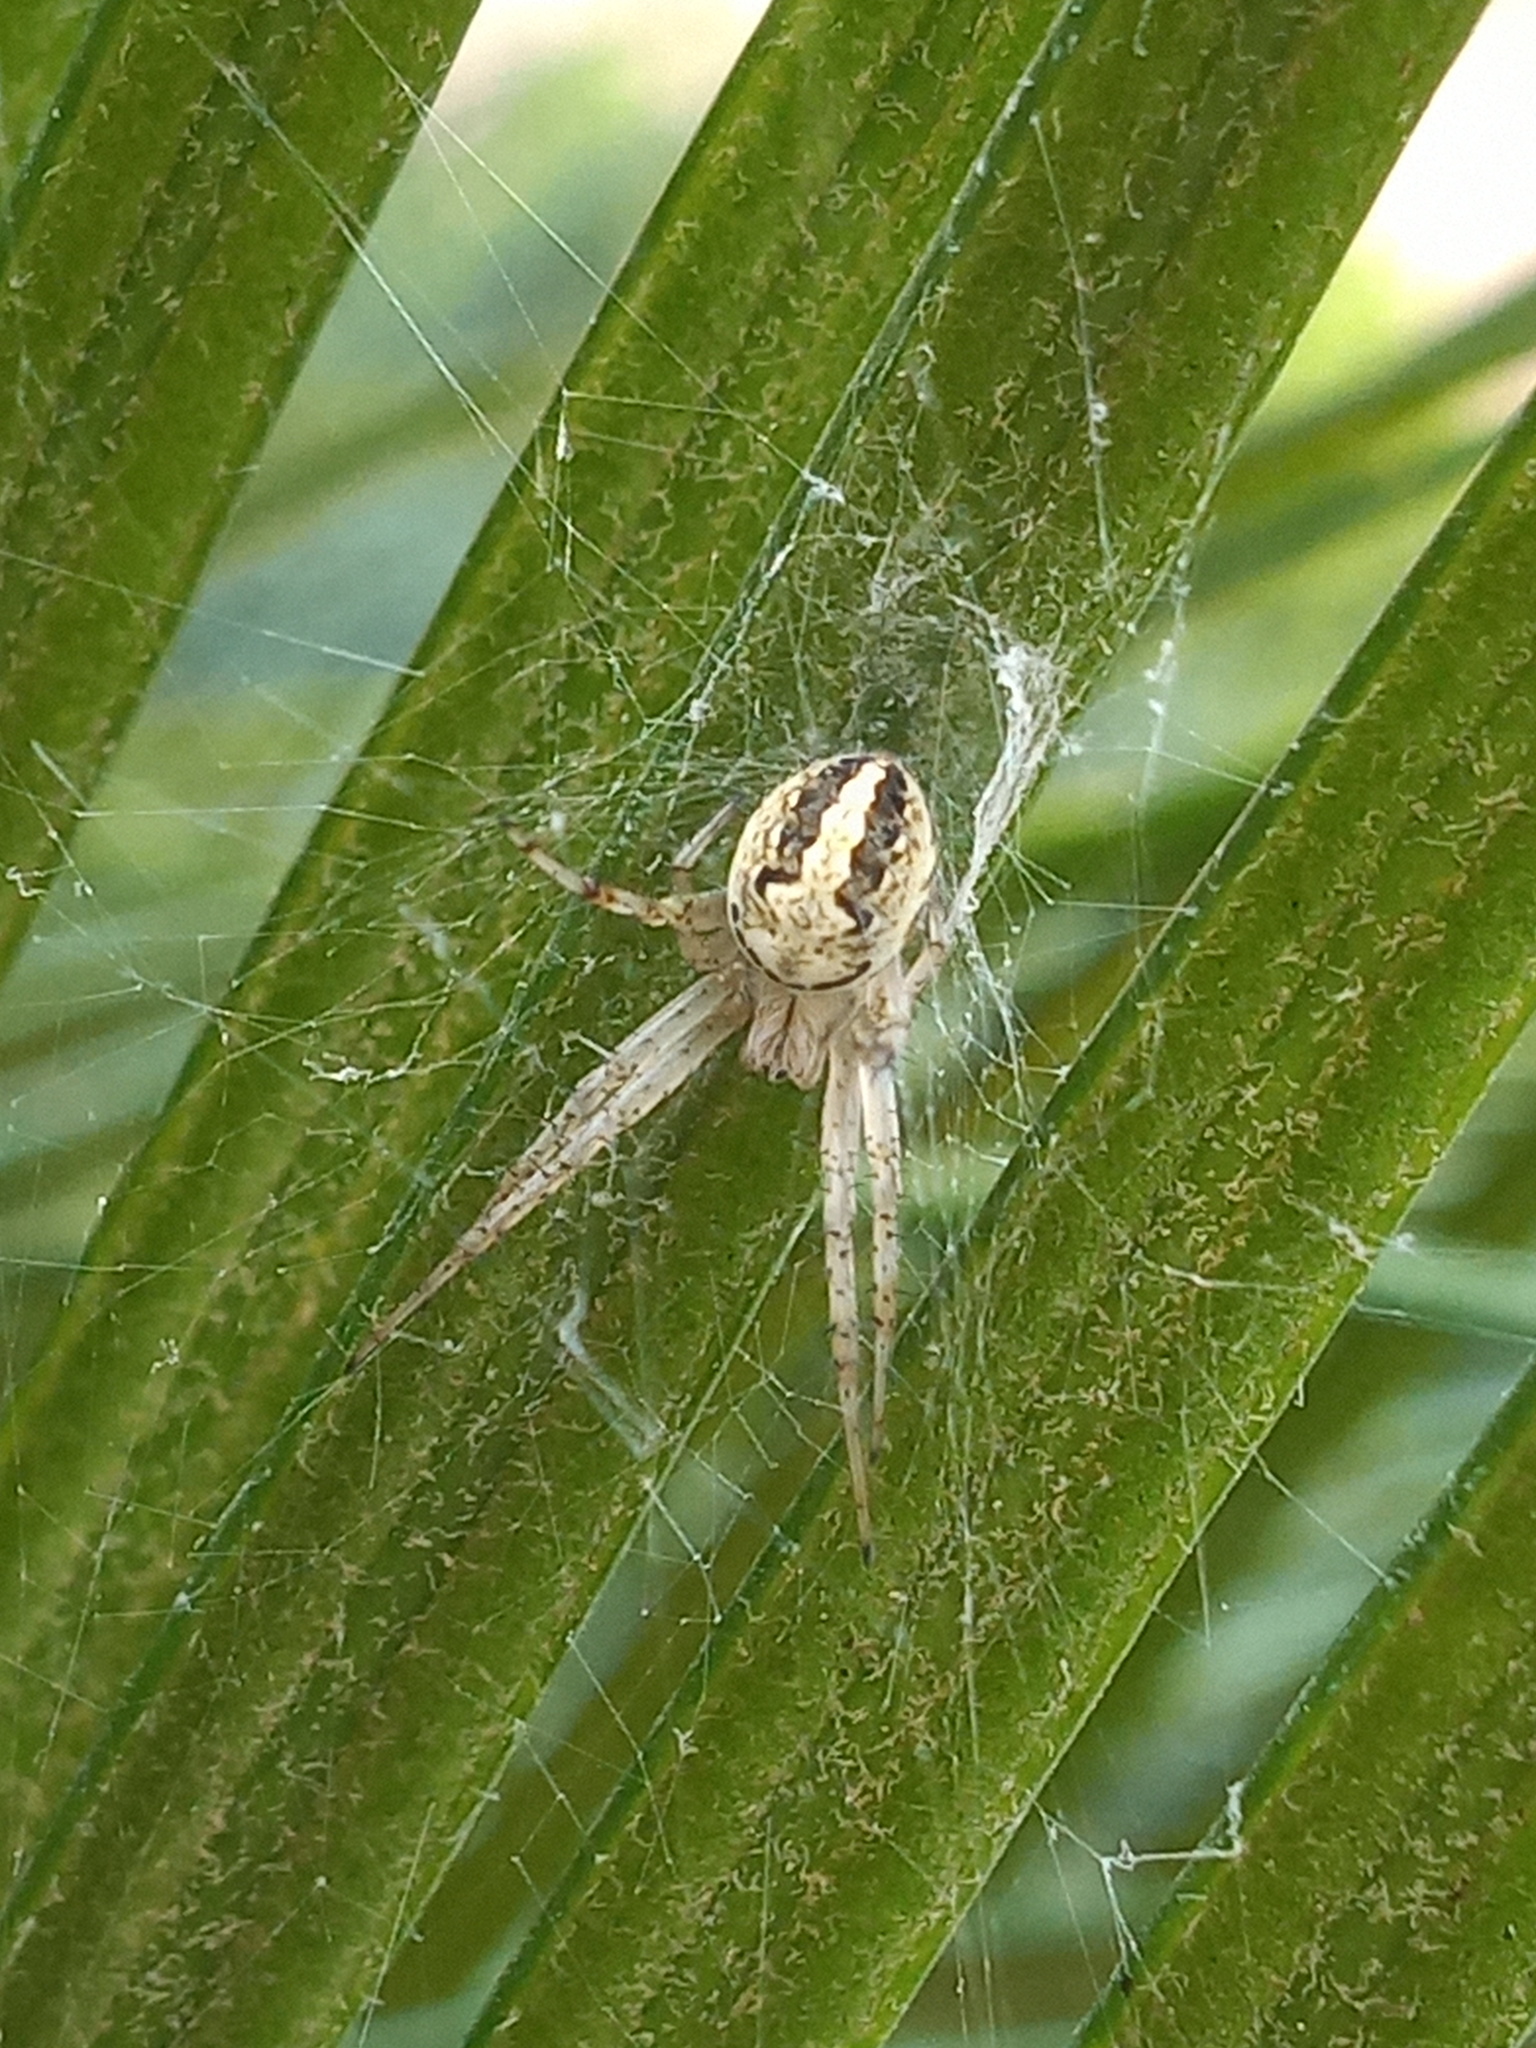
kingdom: Animalia
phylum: Arthropoda
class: Arachnida
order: Araneae
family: Araneidae
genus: Neoscona
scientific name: Neoscona oaxacensis
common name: Orb weavers
